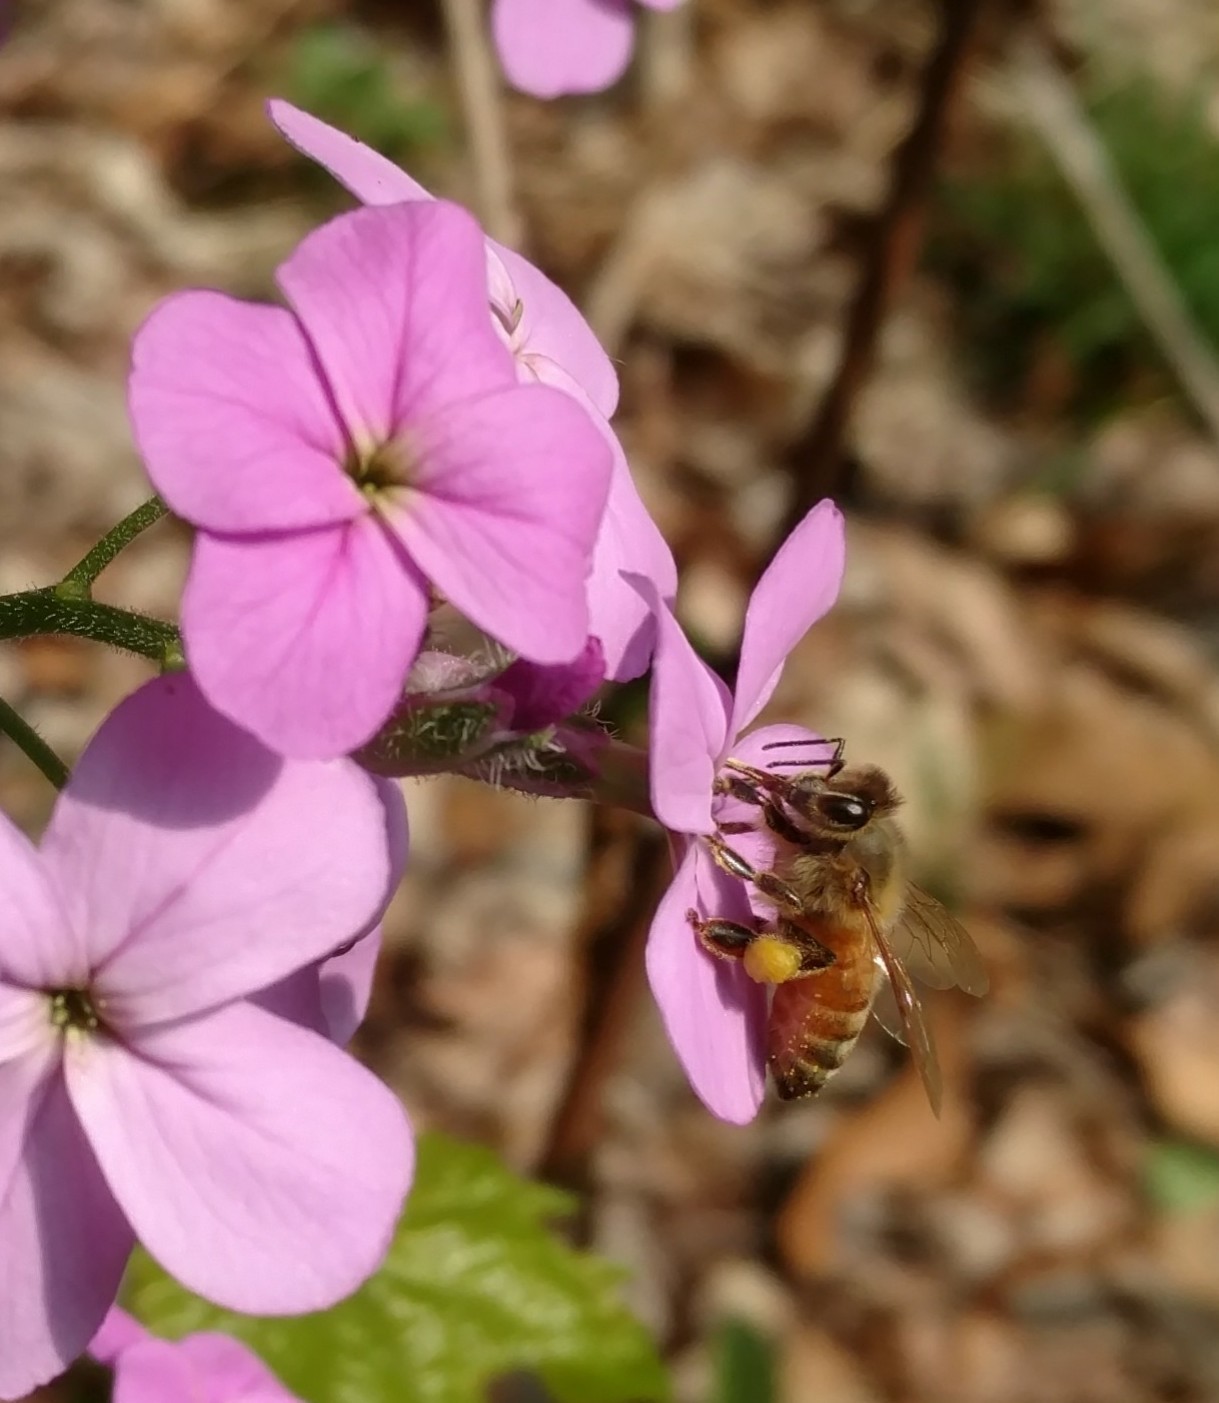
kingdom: Animalia
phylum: Arthropoda
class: Insecta
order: Hymenoptera
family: Apidae
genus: Apis
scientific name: Apis mellifera
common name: Honey bee
